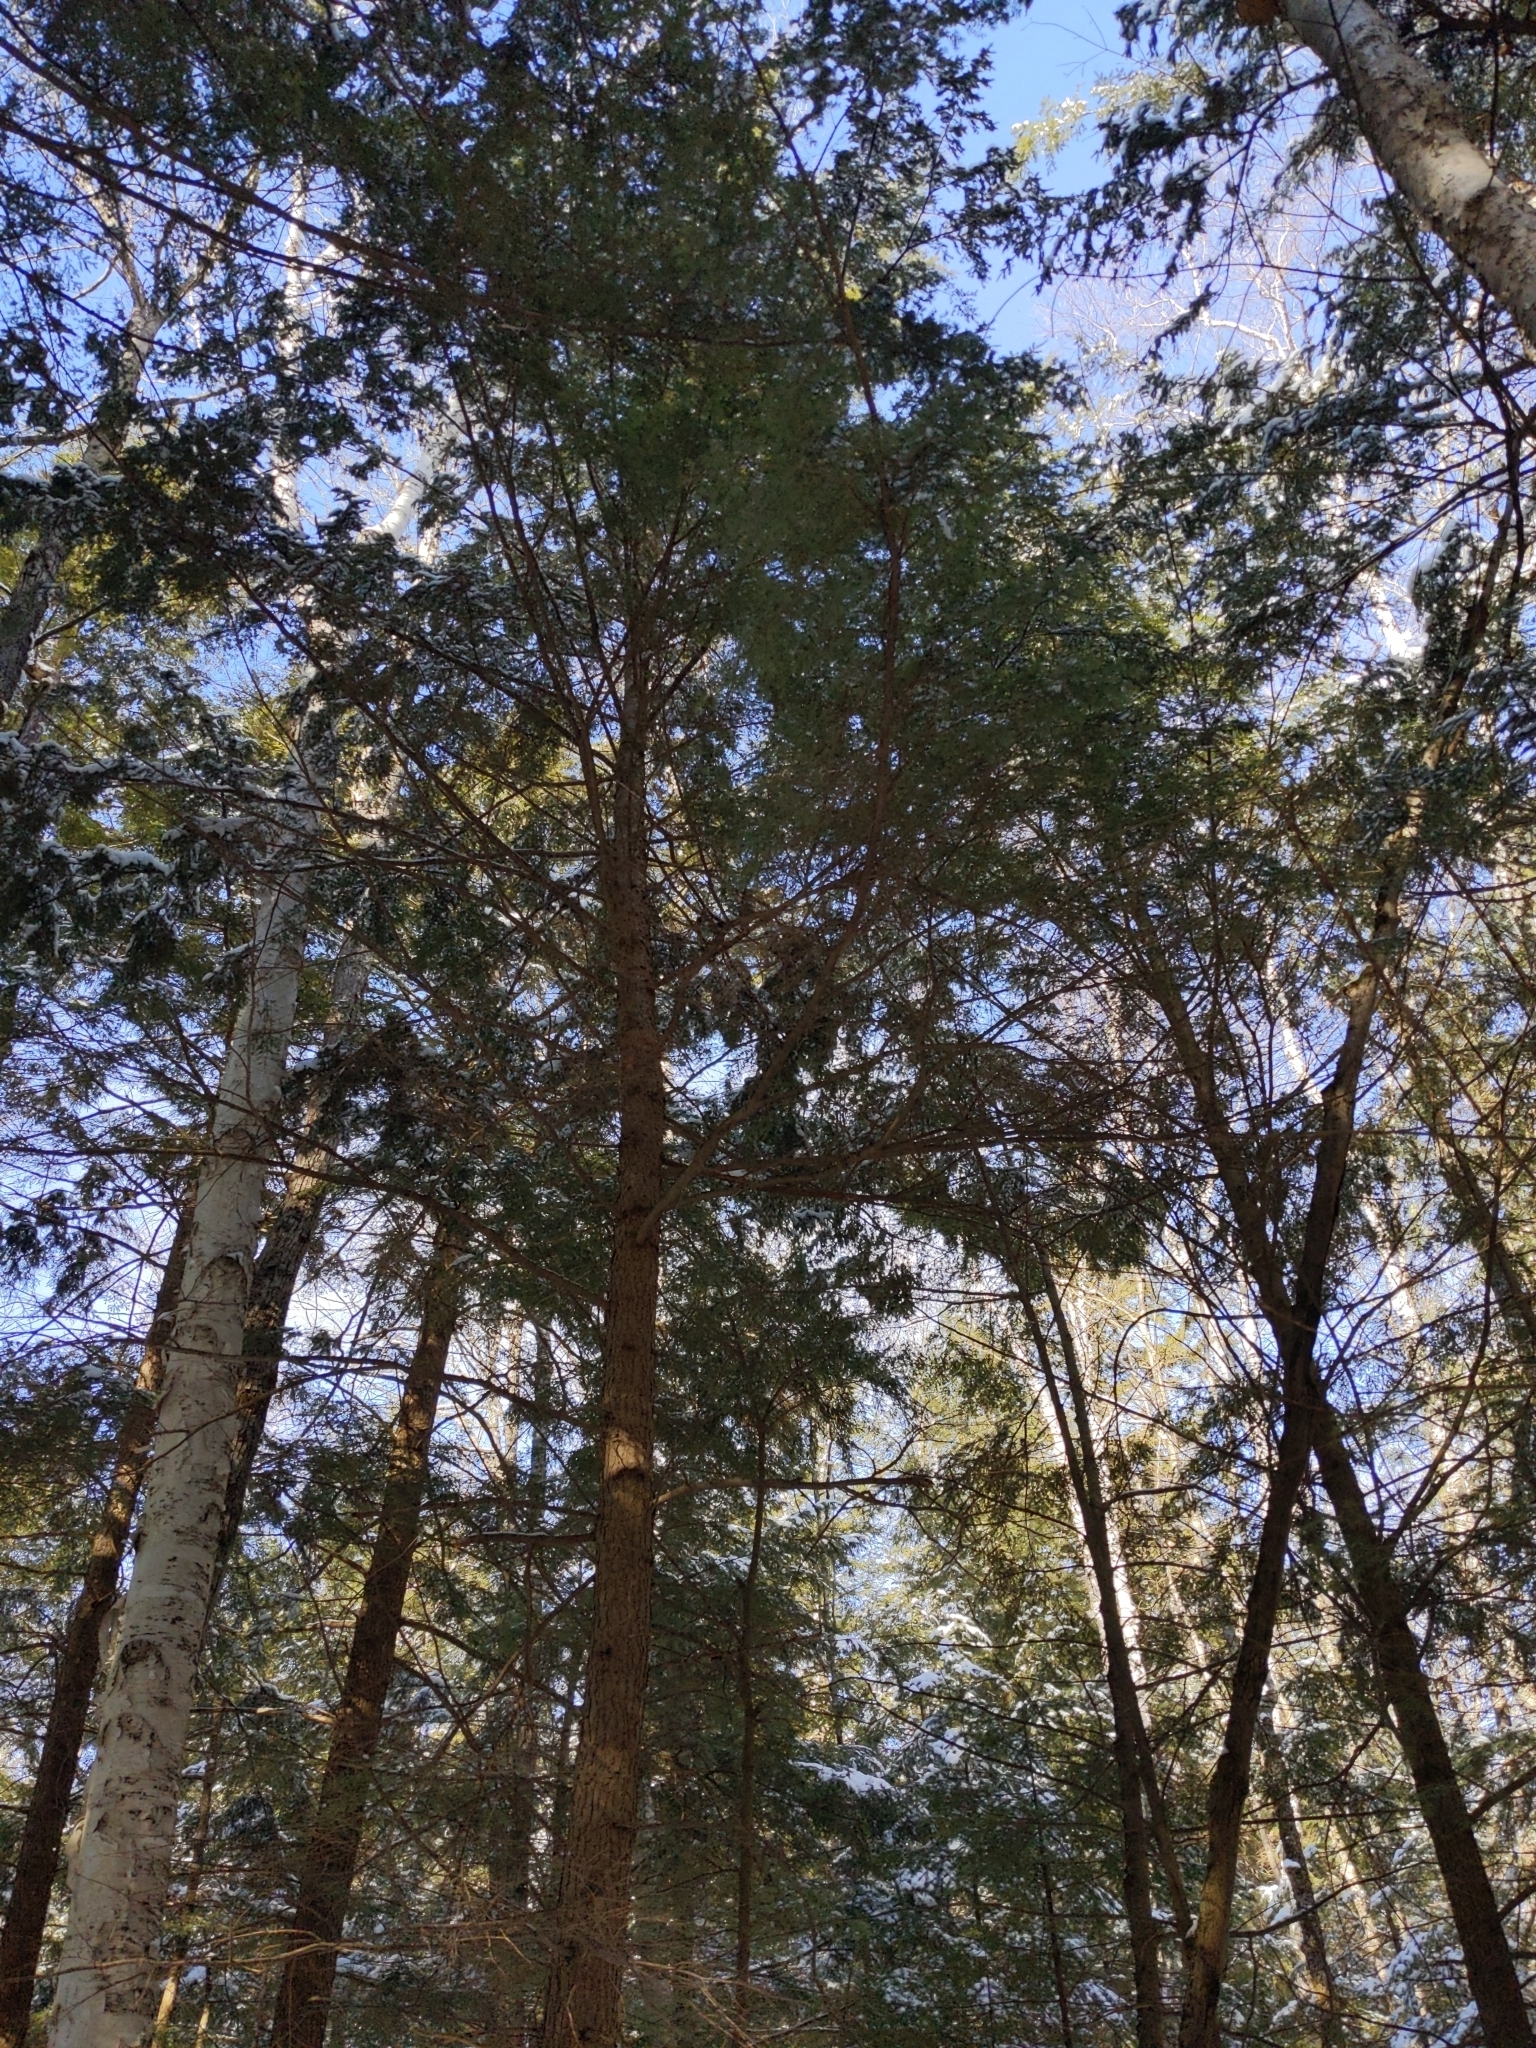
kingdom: Plantae
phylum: Tracheophyta
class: Pinopsida
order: Pinales
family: Pinaceae
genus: Tsuga
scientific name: Tsuga canadensis
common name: Eastern hemlock
